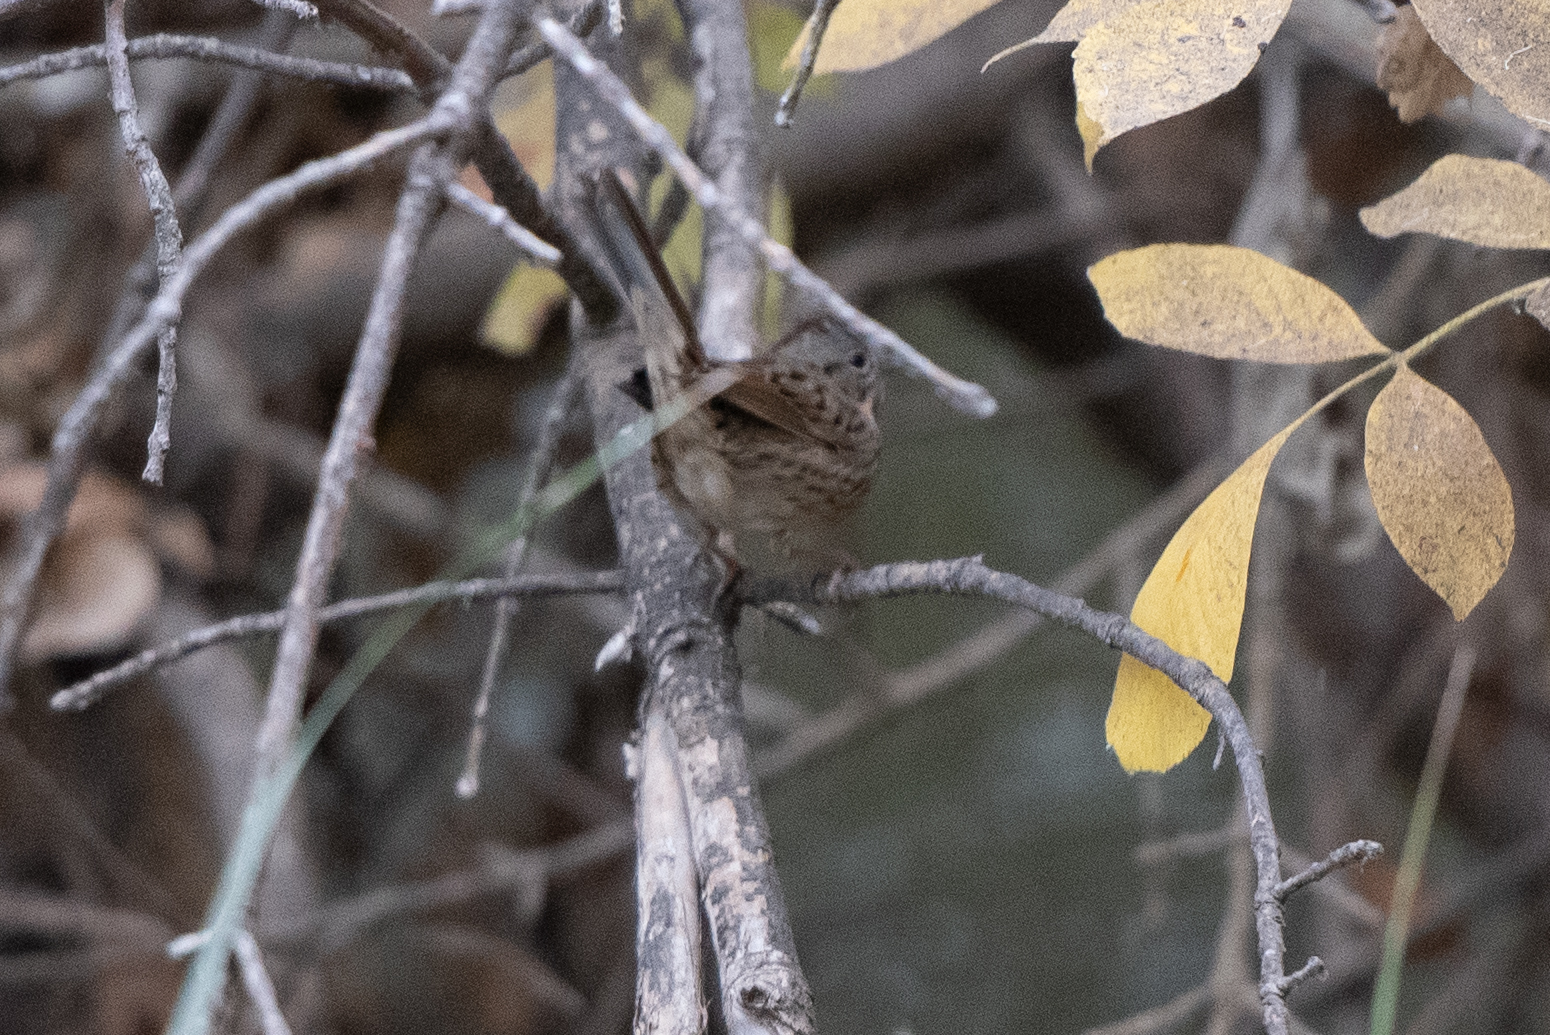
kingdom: Animalia
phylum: Chordata
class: Aves
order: Passeriformes
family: Passerellidae
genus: Melospiza
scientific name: Melospiza lincolnii
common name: Lincoln's sparrow
